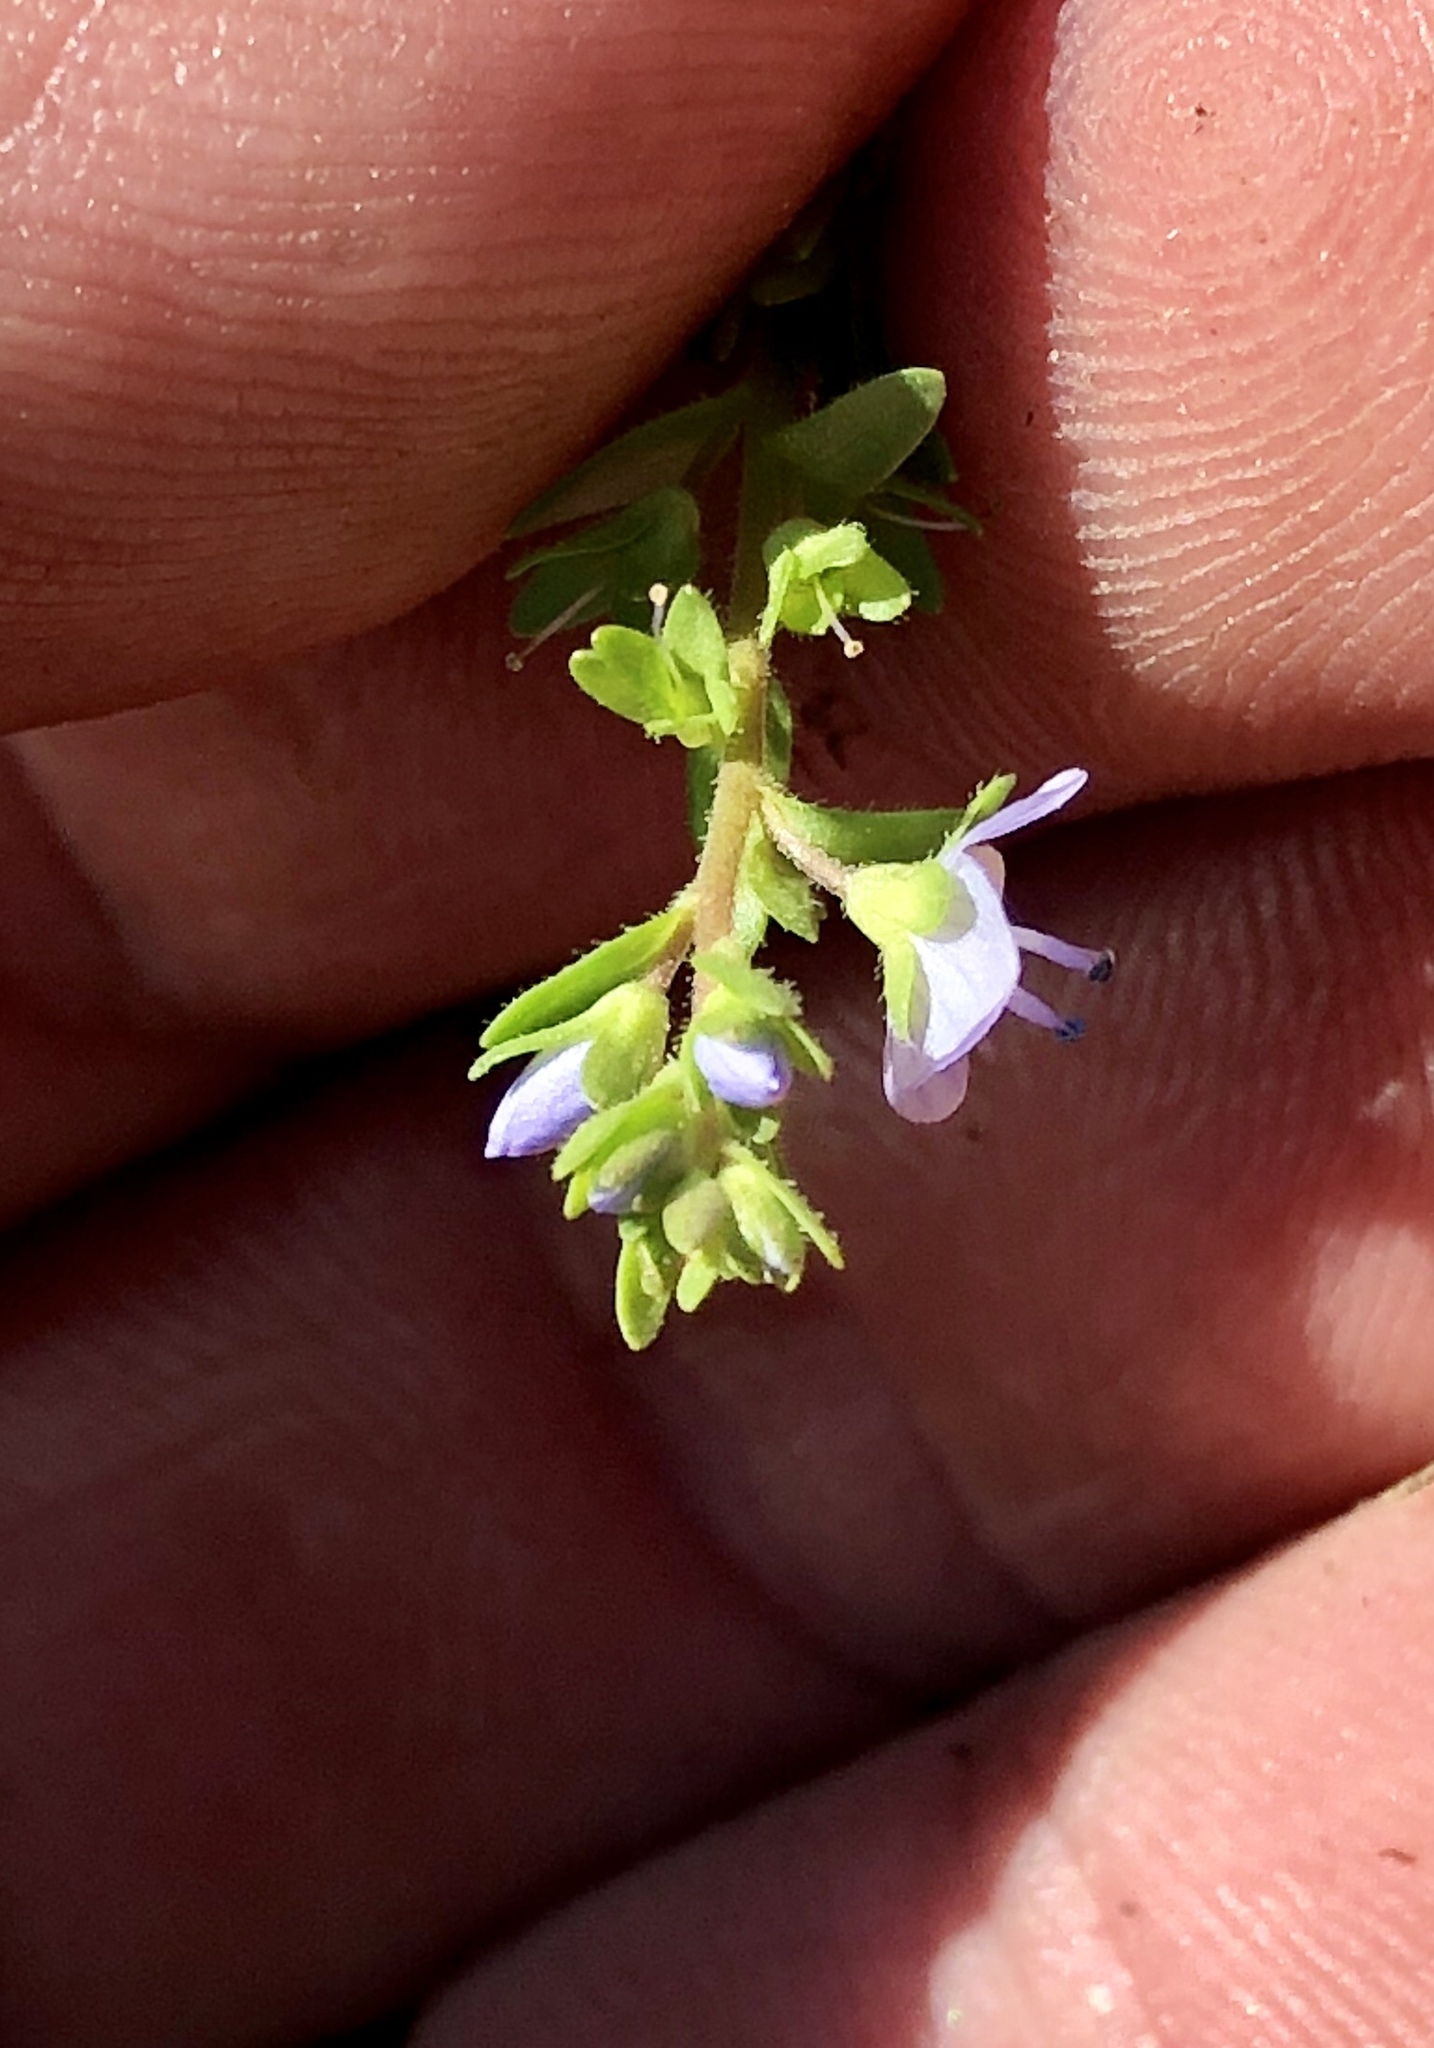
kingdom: Plantae
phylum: Tracheophyta
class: Magnoliopsida
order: Lamiales
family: Plantaginaceae
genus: Veronica
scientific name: Veronica serpyllifolia
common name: Thyme-leaved speedwell
